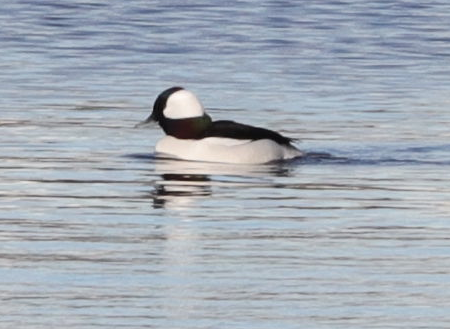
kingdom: Animalia
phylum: Chordata
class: Aves
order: Anseriformes
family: Anatidae
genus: Bucephala
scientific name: Bucephala albeola
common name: Bufflehead
